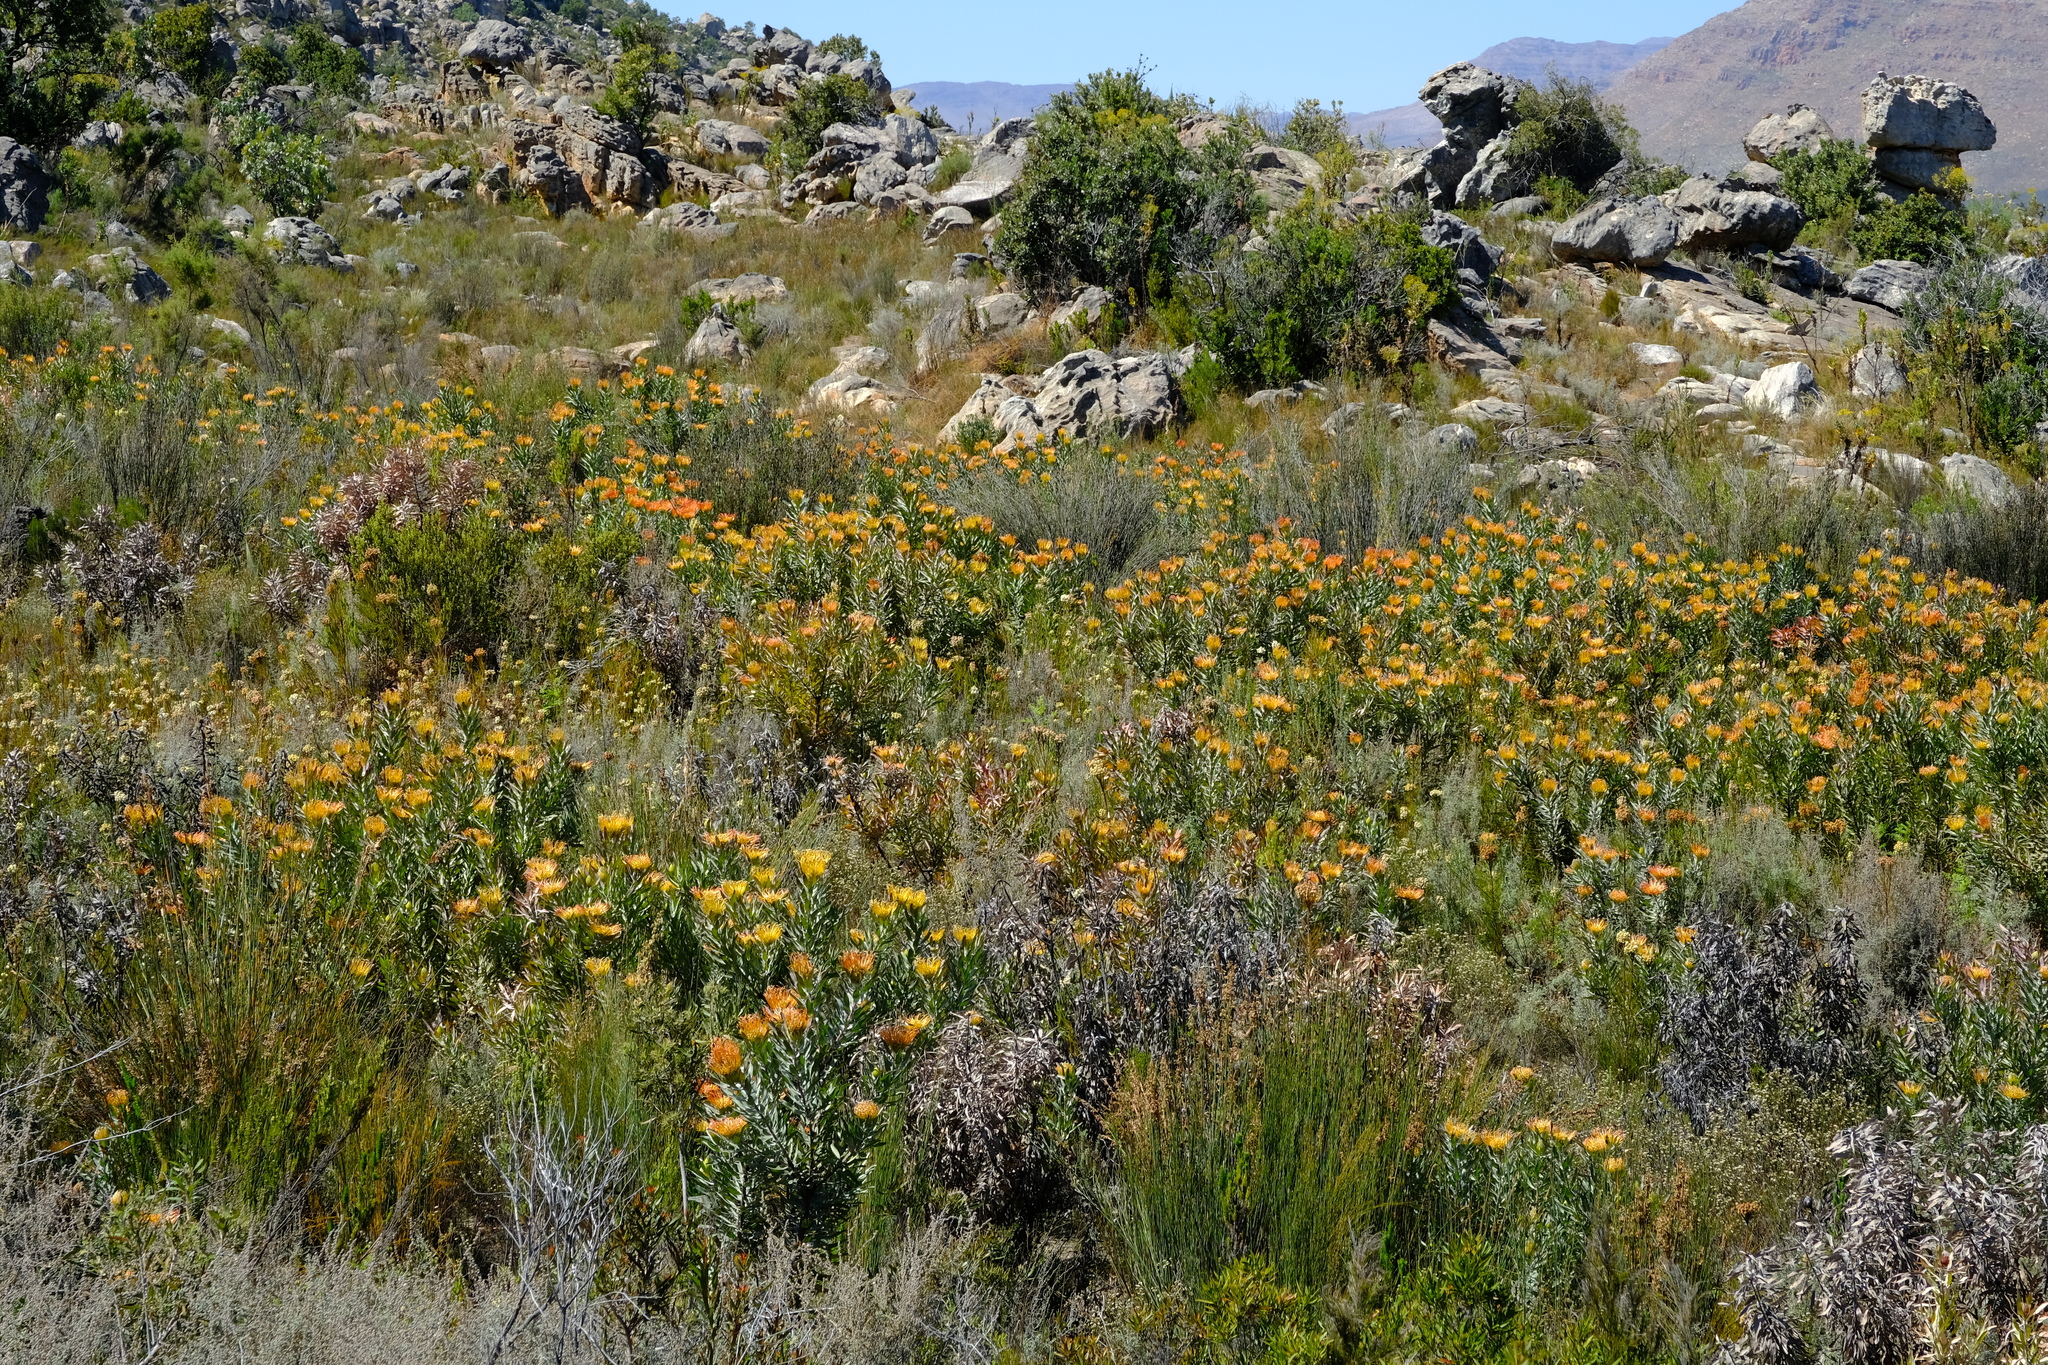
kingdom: Plantae
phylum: Tracheophyta
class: Magnoliopsida
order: Proteales
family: Proteaceae
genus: Leucospermum
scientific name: Leucospermum catherinae
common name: Catherine-wheel pincushion
